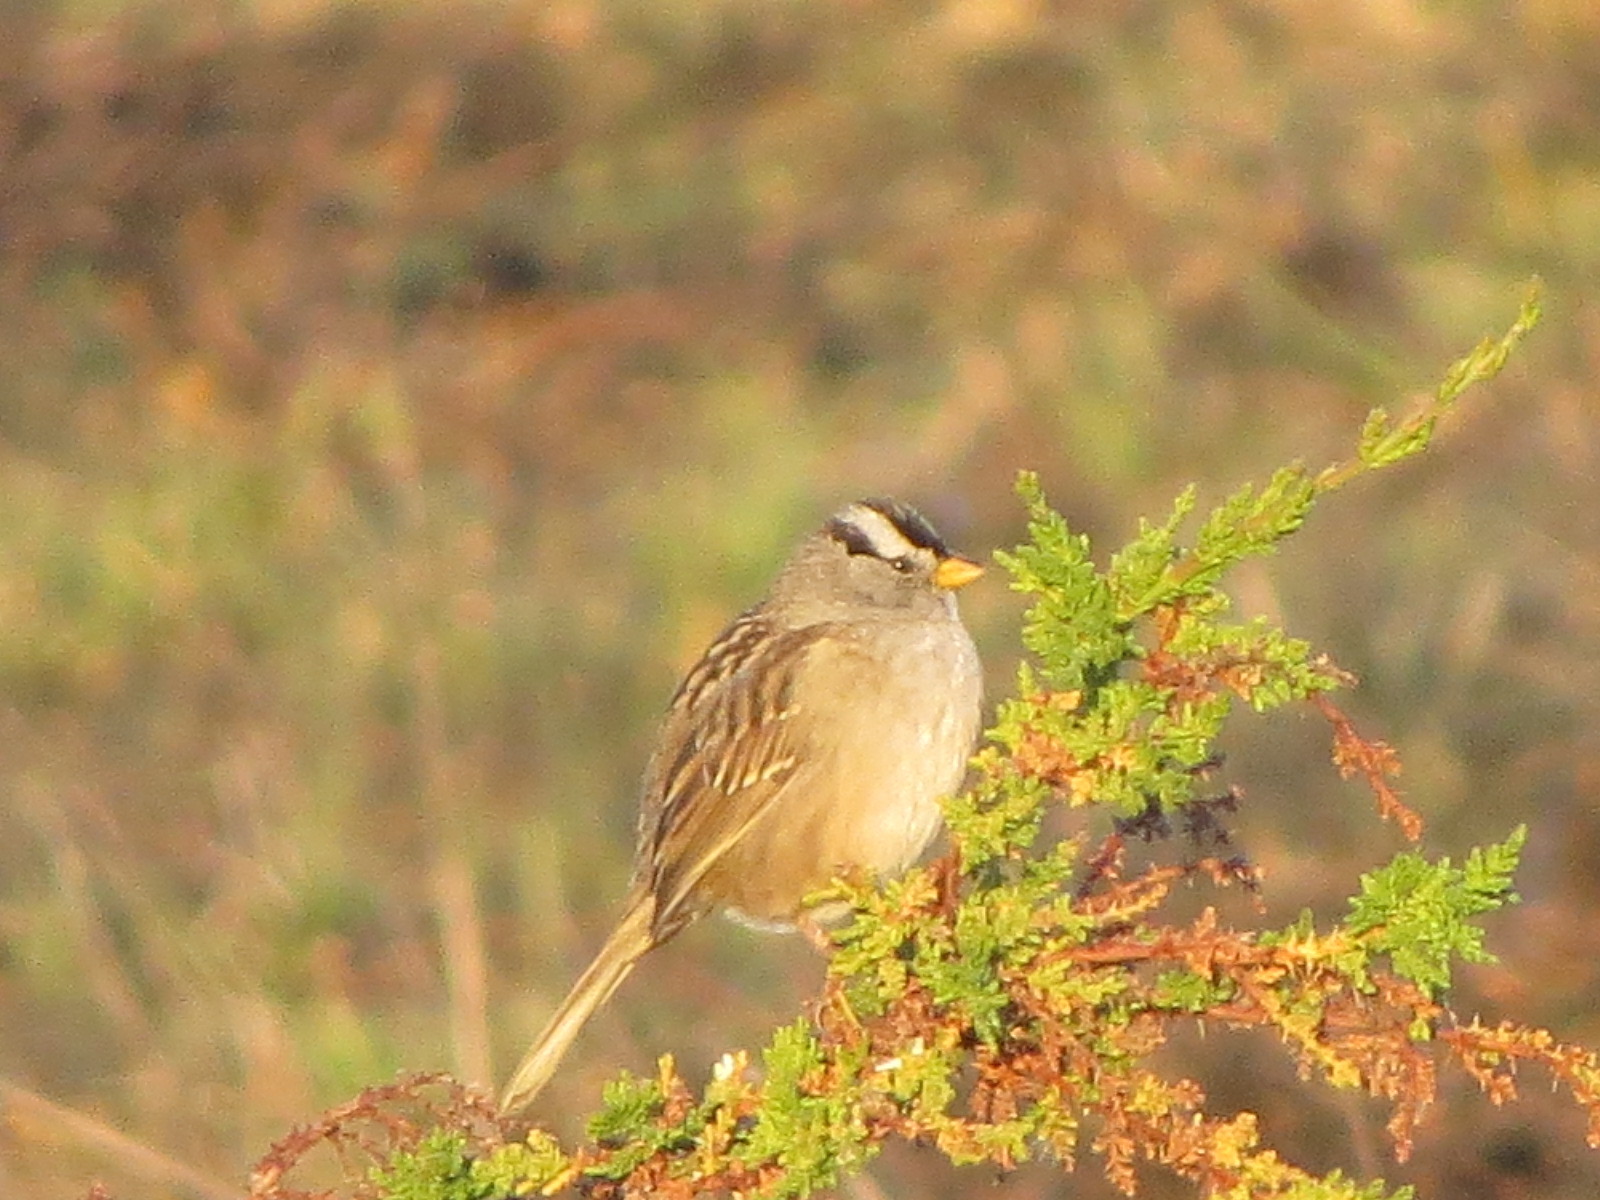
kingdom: Animalia
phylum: Chordata
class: Aves
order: Passeriformes
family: Passerellidae
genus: Zonotrichia
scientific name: Zonotrichia leucophrys
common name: White-crowned sparrow
